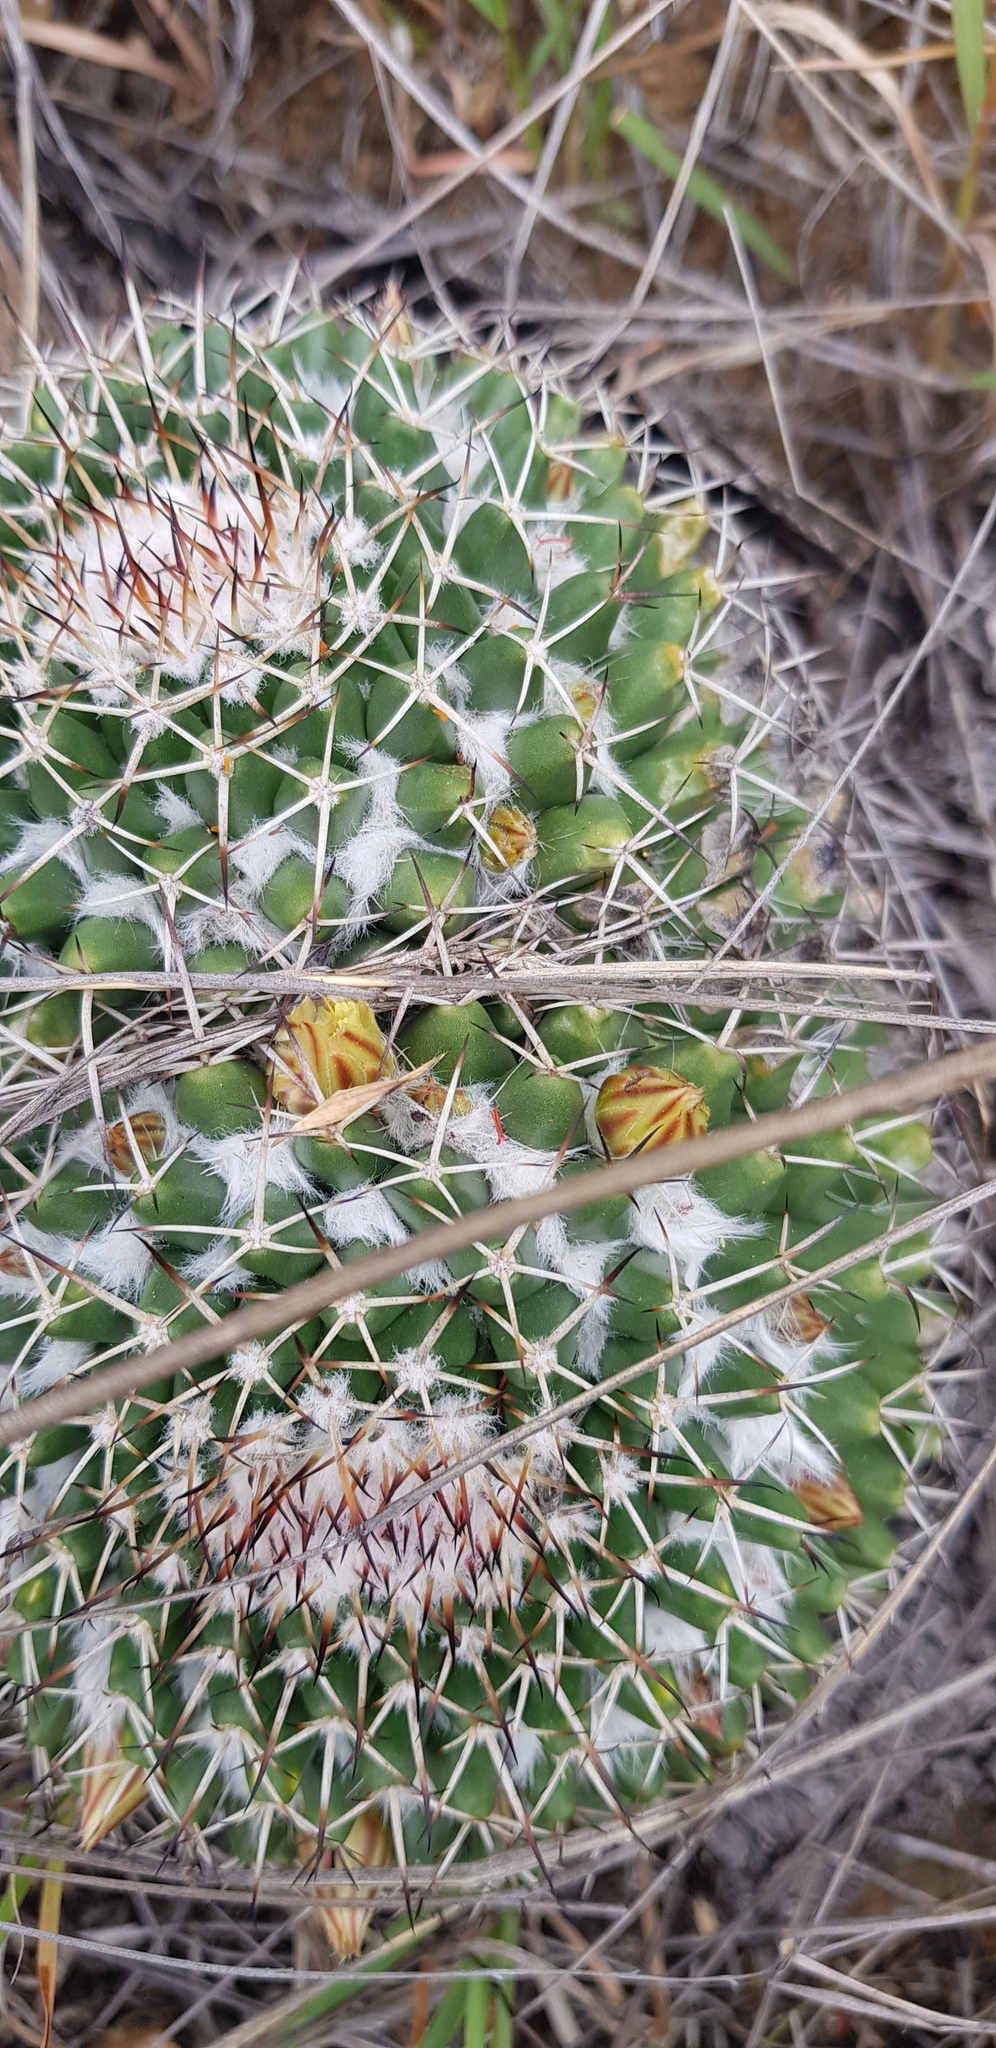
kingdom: Plantae
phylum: Tracheophyta
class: Magnoliopsida
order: Caryophyllales
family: Cactaceae
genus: Mammillaria
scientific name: Mammillaria karwinskiana
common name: Royal cross
